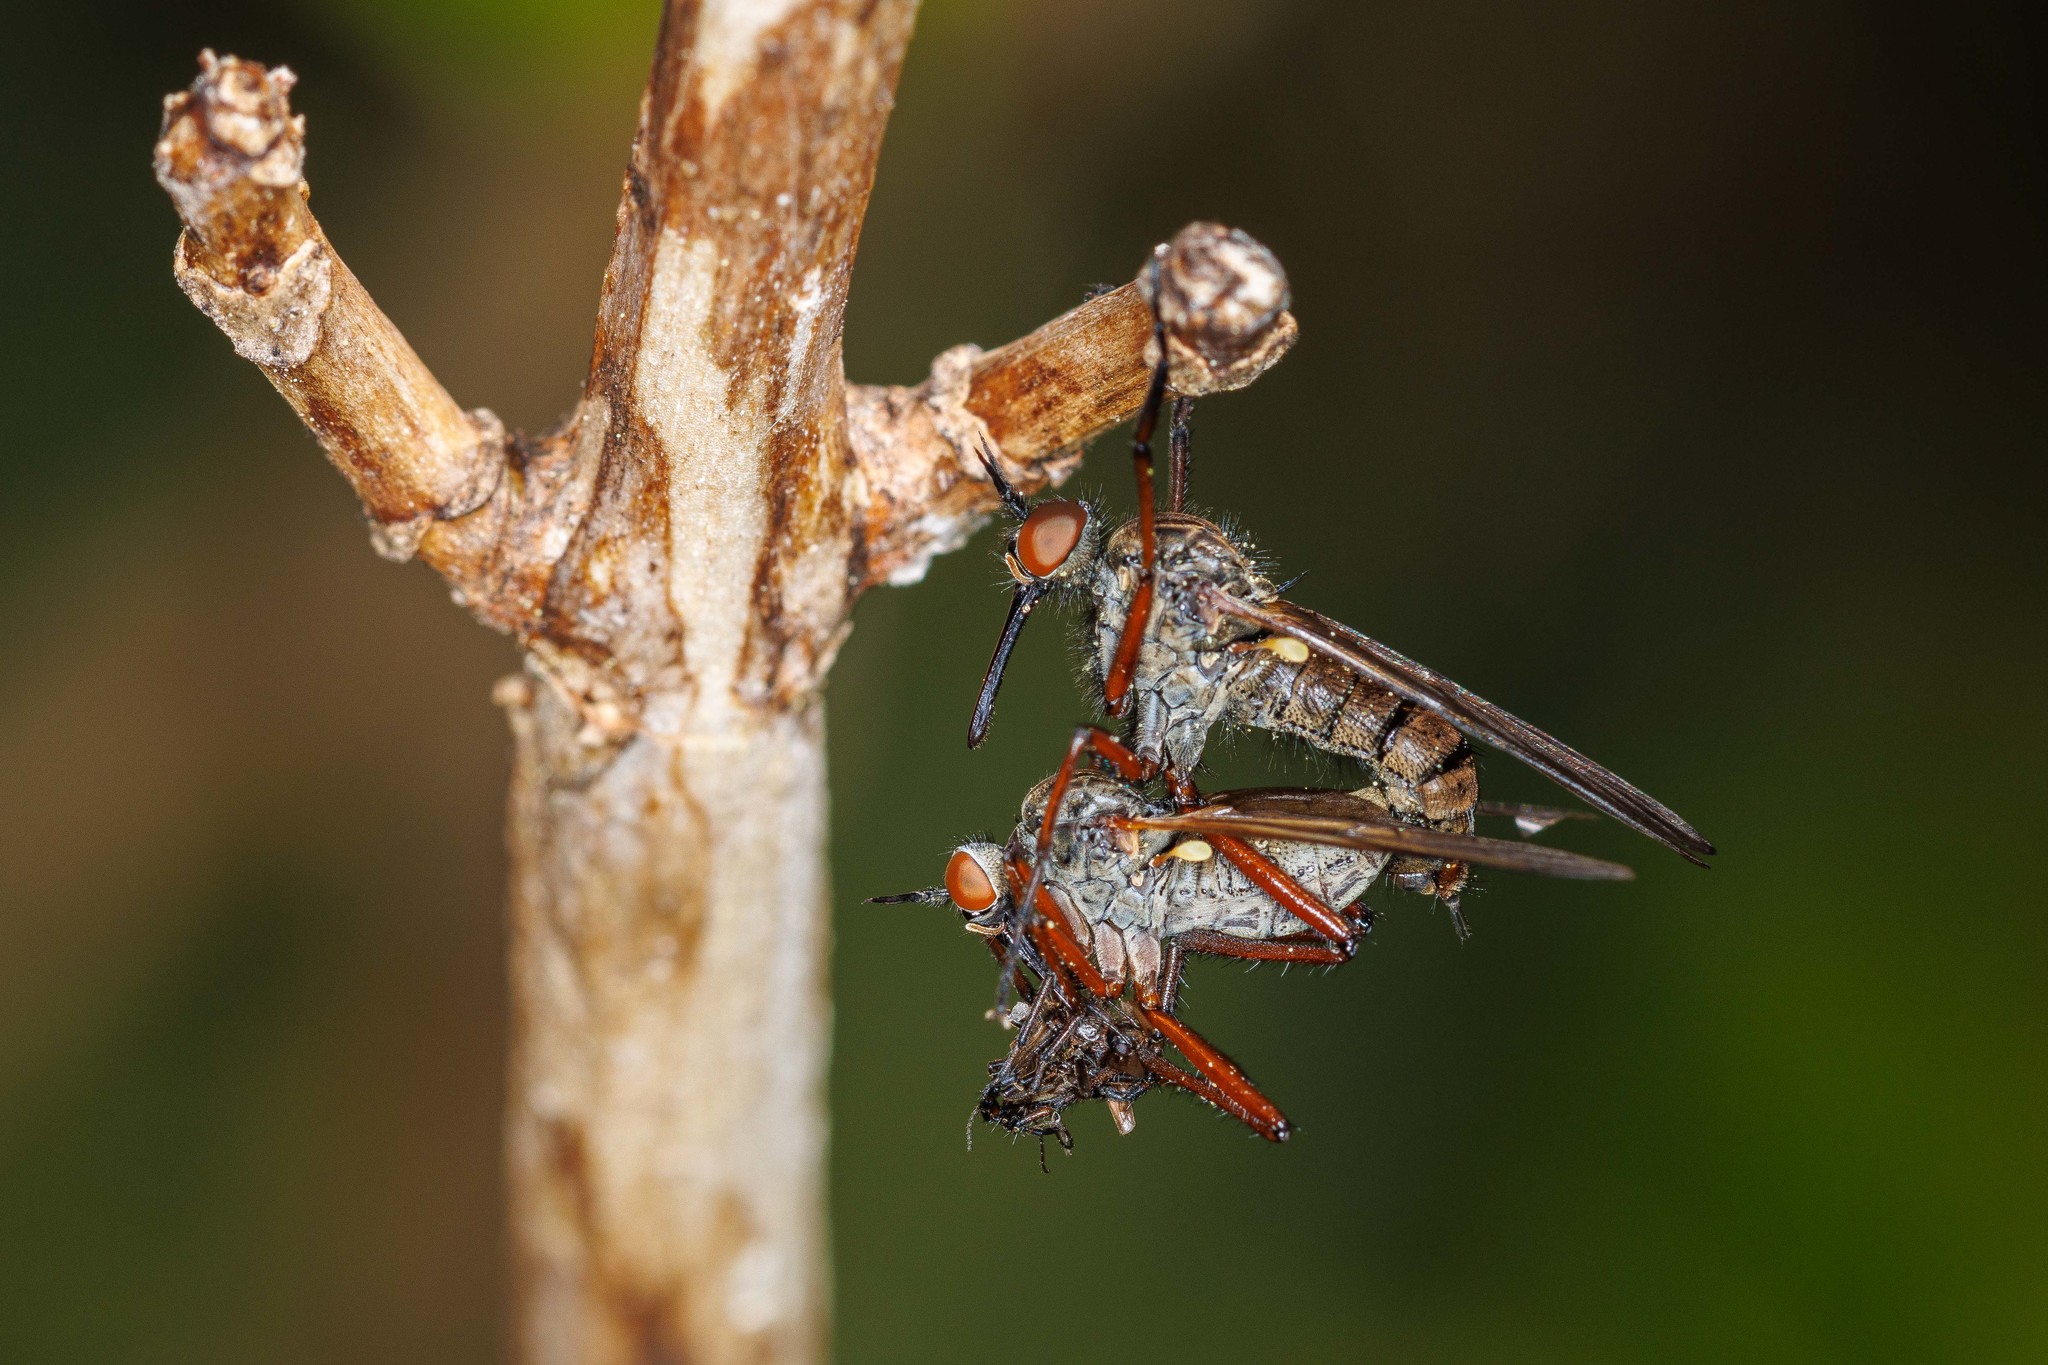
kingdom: Animalia
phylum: Arthropoda
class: Insecta
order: Diptera
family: Empididae
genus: Empis
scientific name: Empis barbatoides
